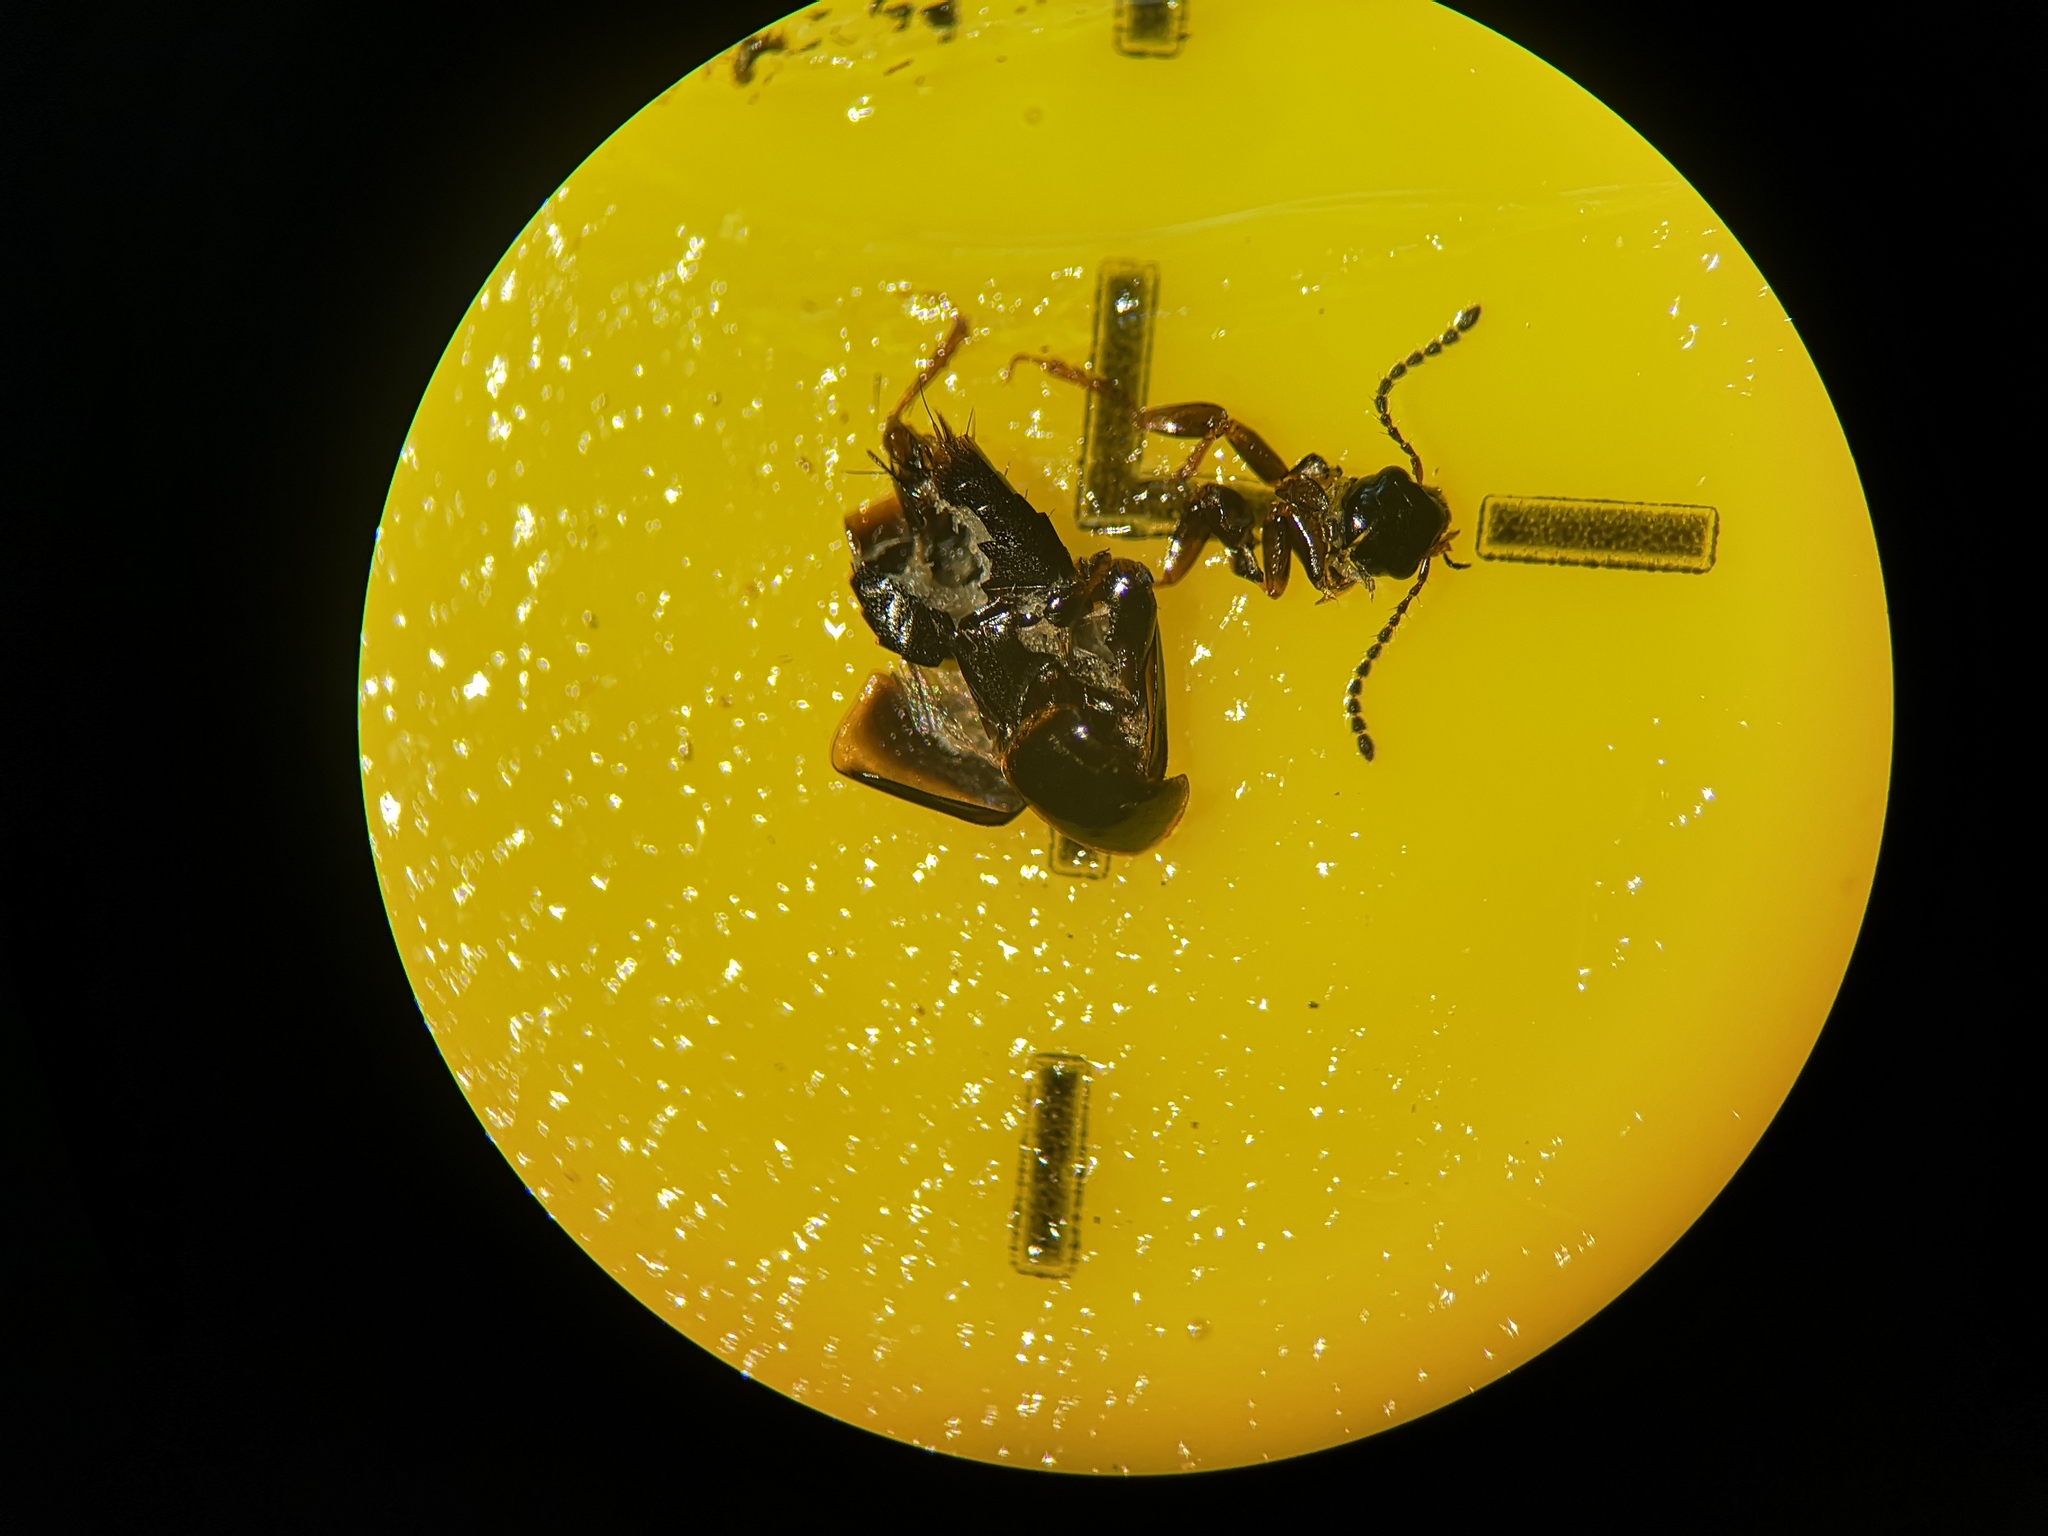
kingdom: Animalia
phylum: Arthropoda
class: Insecta
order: Coleoptera
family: Staphylinidae
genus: Tachinus
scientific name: Tachinus marginellus
